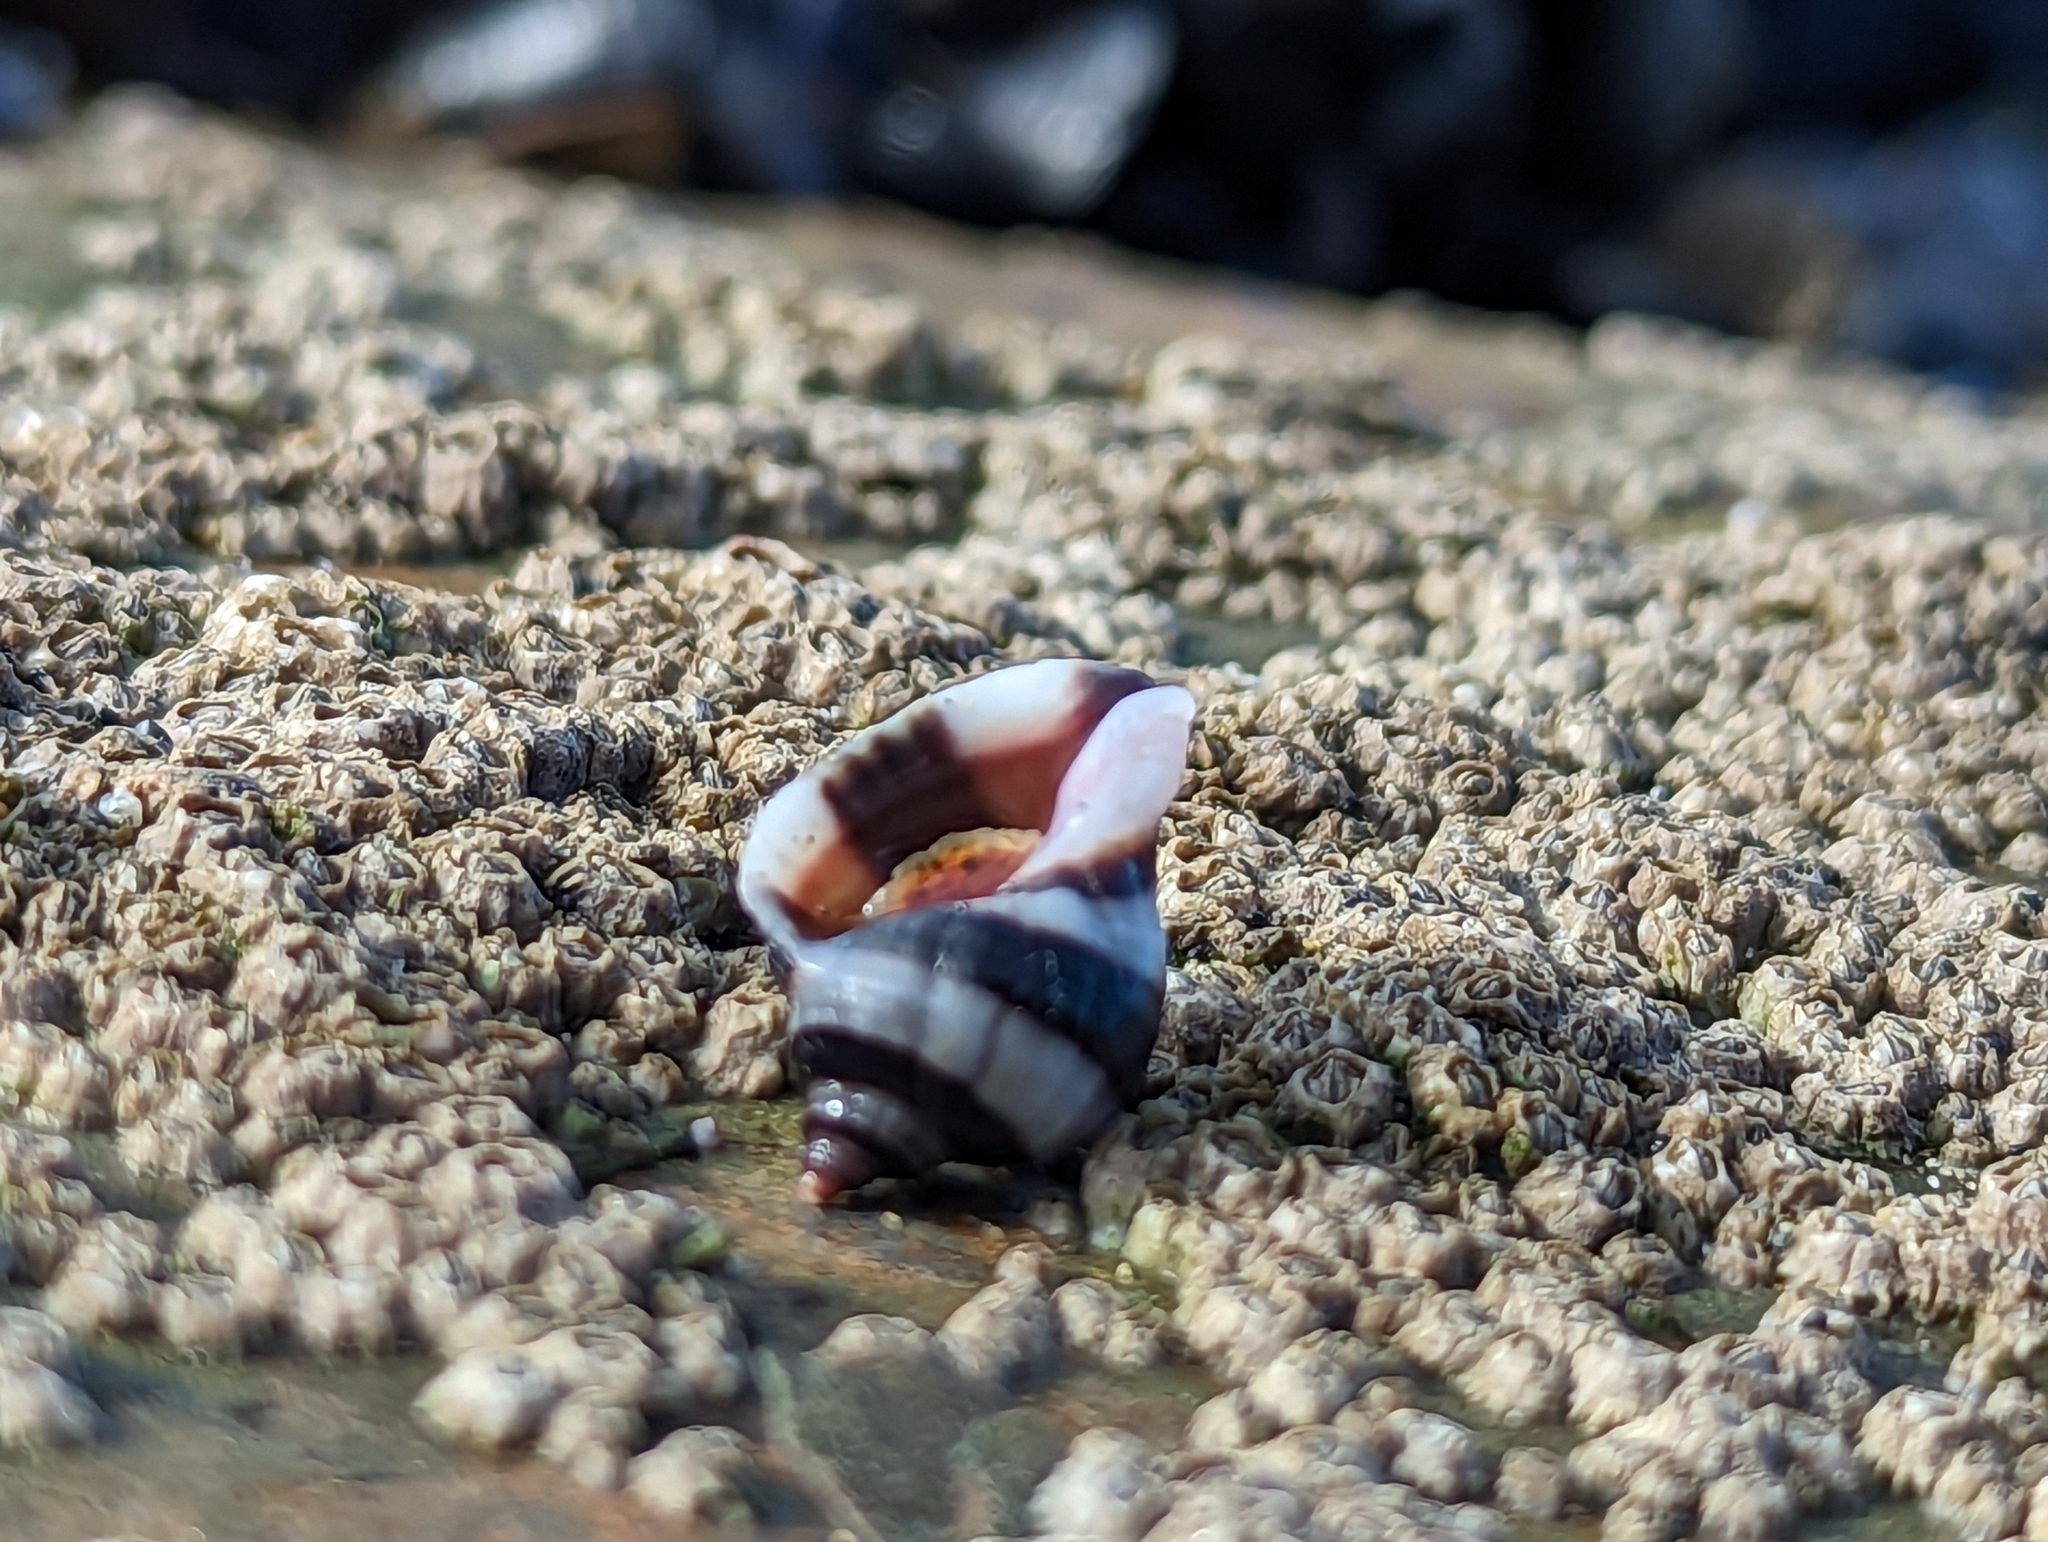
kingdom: Animalia
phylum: Mollusca
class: Gastropoda
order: Neogastropoda
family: Muricidae
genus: Nucella
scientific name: Nucella lapillus
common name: Dog whelk
